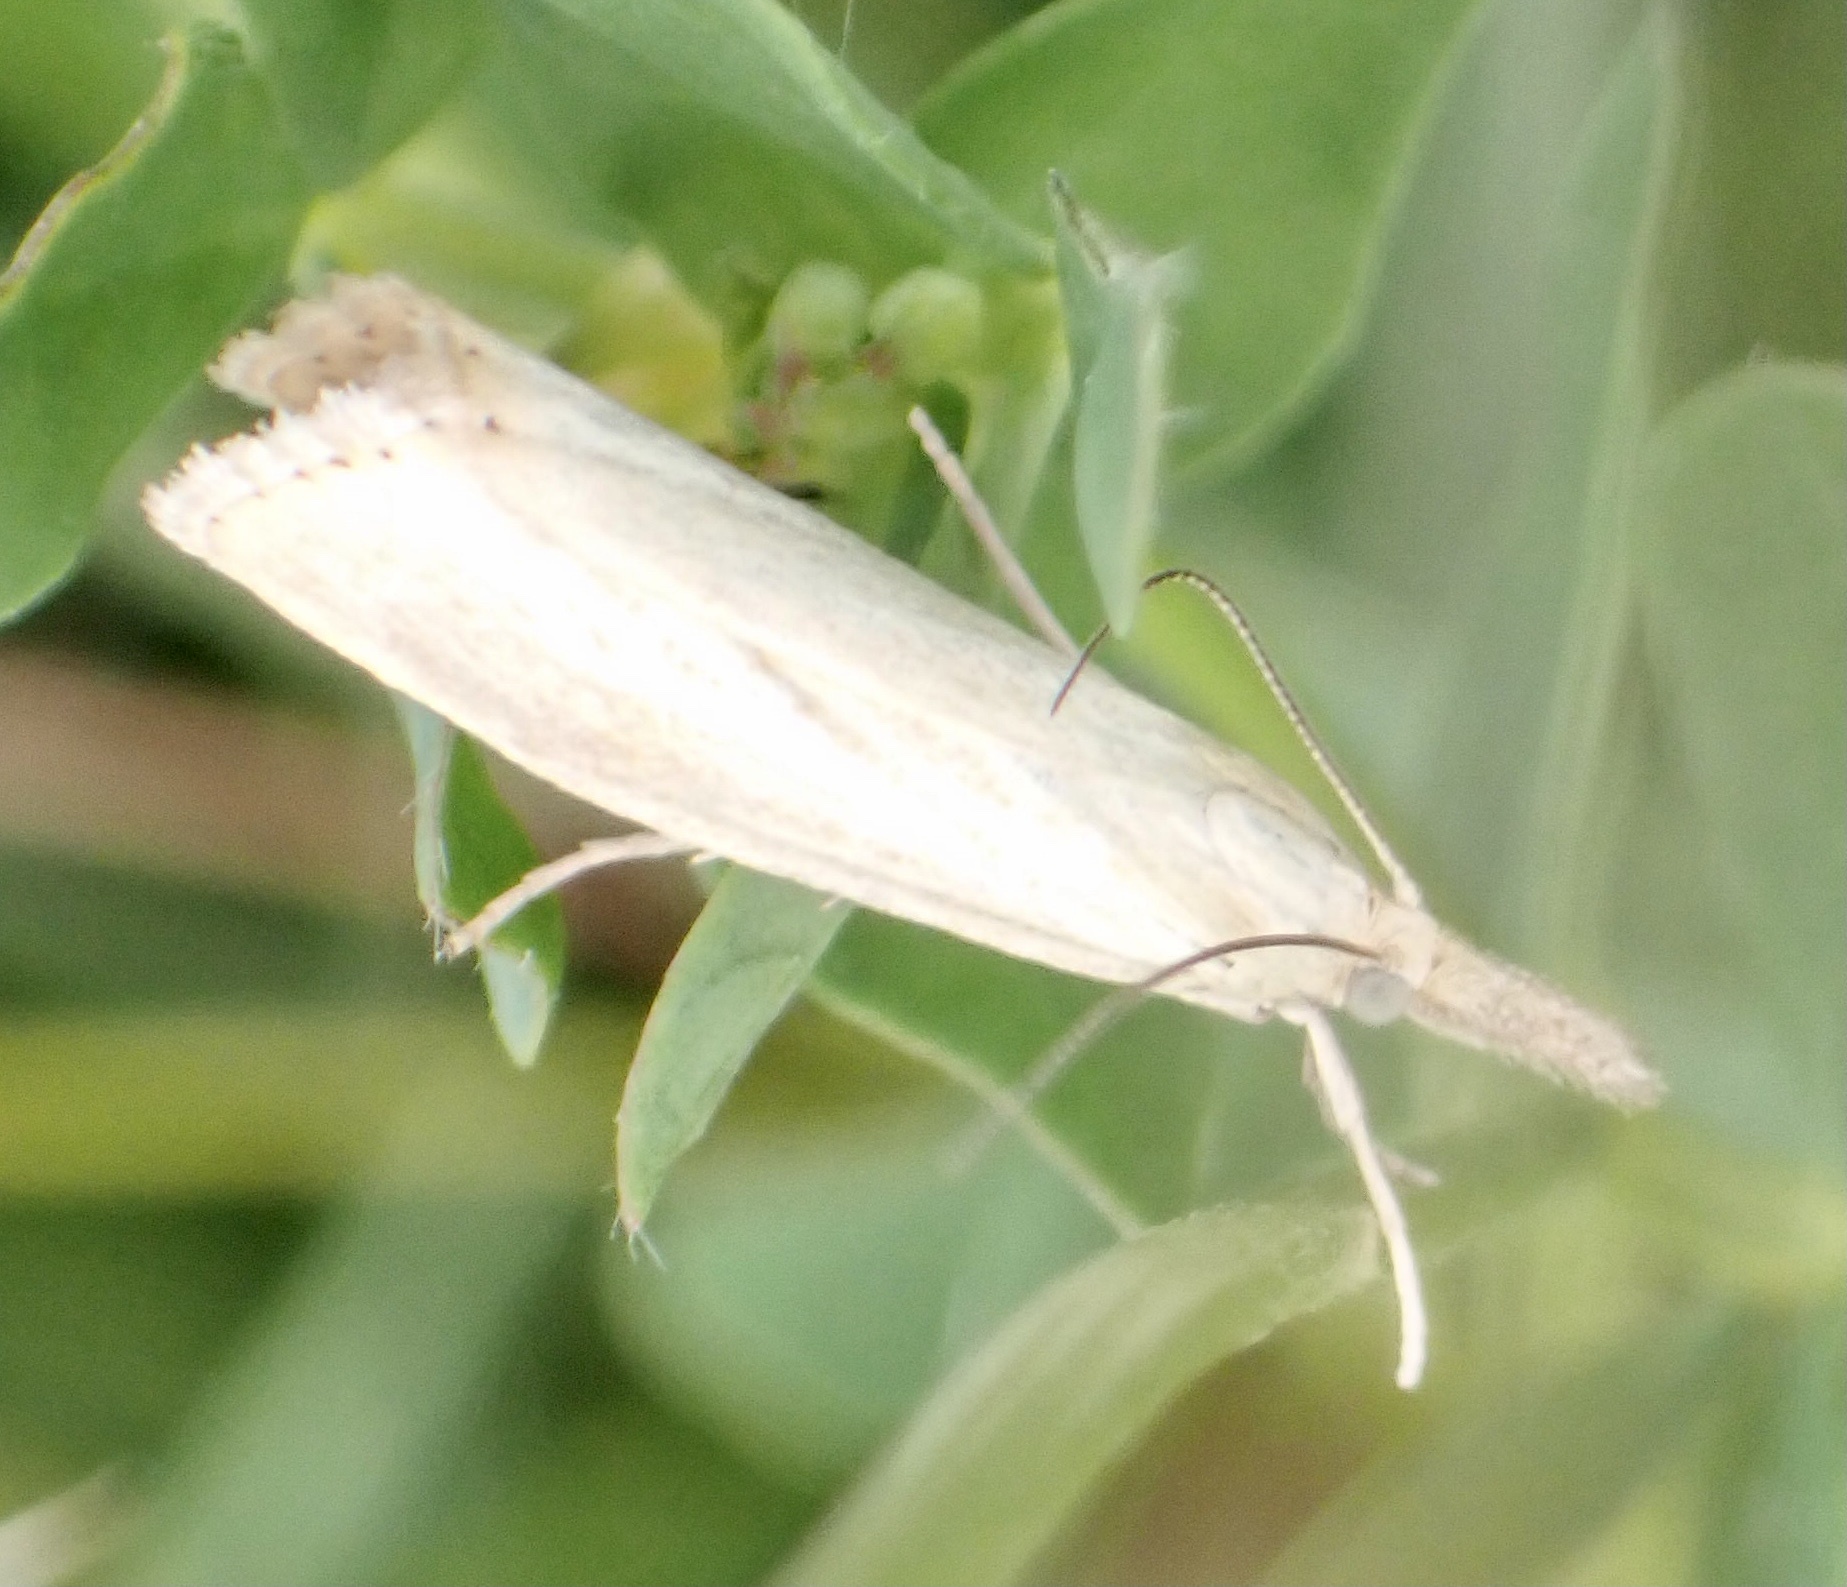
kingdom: Animalia
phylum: Arthropoda
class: Insecta
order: Lepidoptera
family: Crambidae
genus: Agriphila
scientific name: Agriphila straminella
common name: Straw grass-veneer
